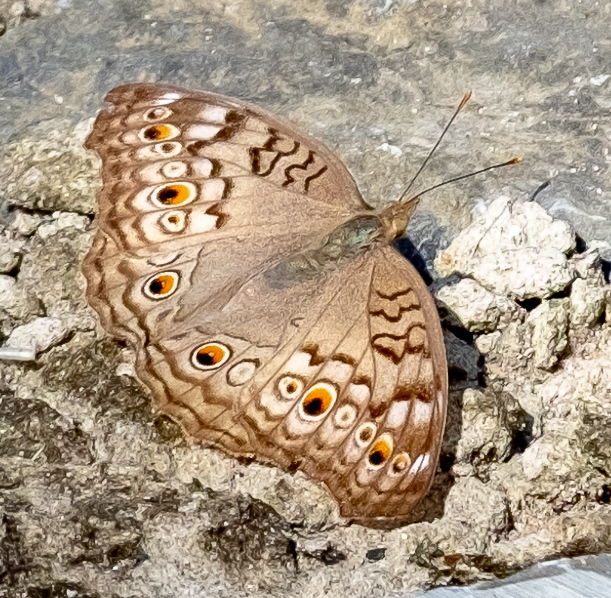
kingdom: Animalia
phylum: Arthropoda
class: Insecta
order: Lepidoptera
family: Nymphalidae
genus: Junonia
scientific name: Junonia atlites
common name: Grey pansy
